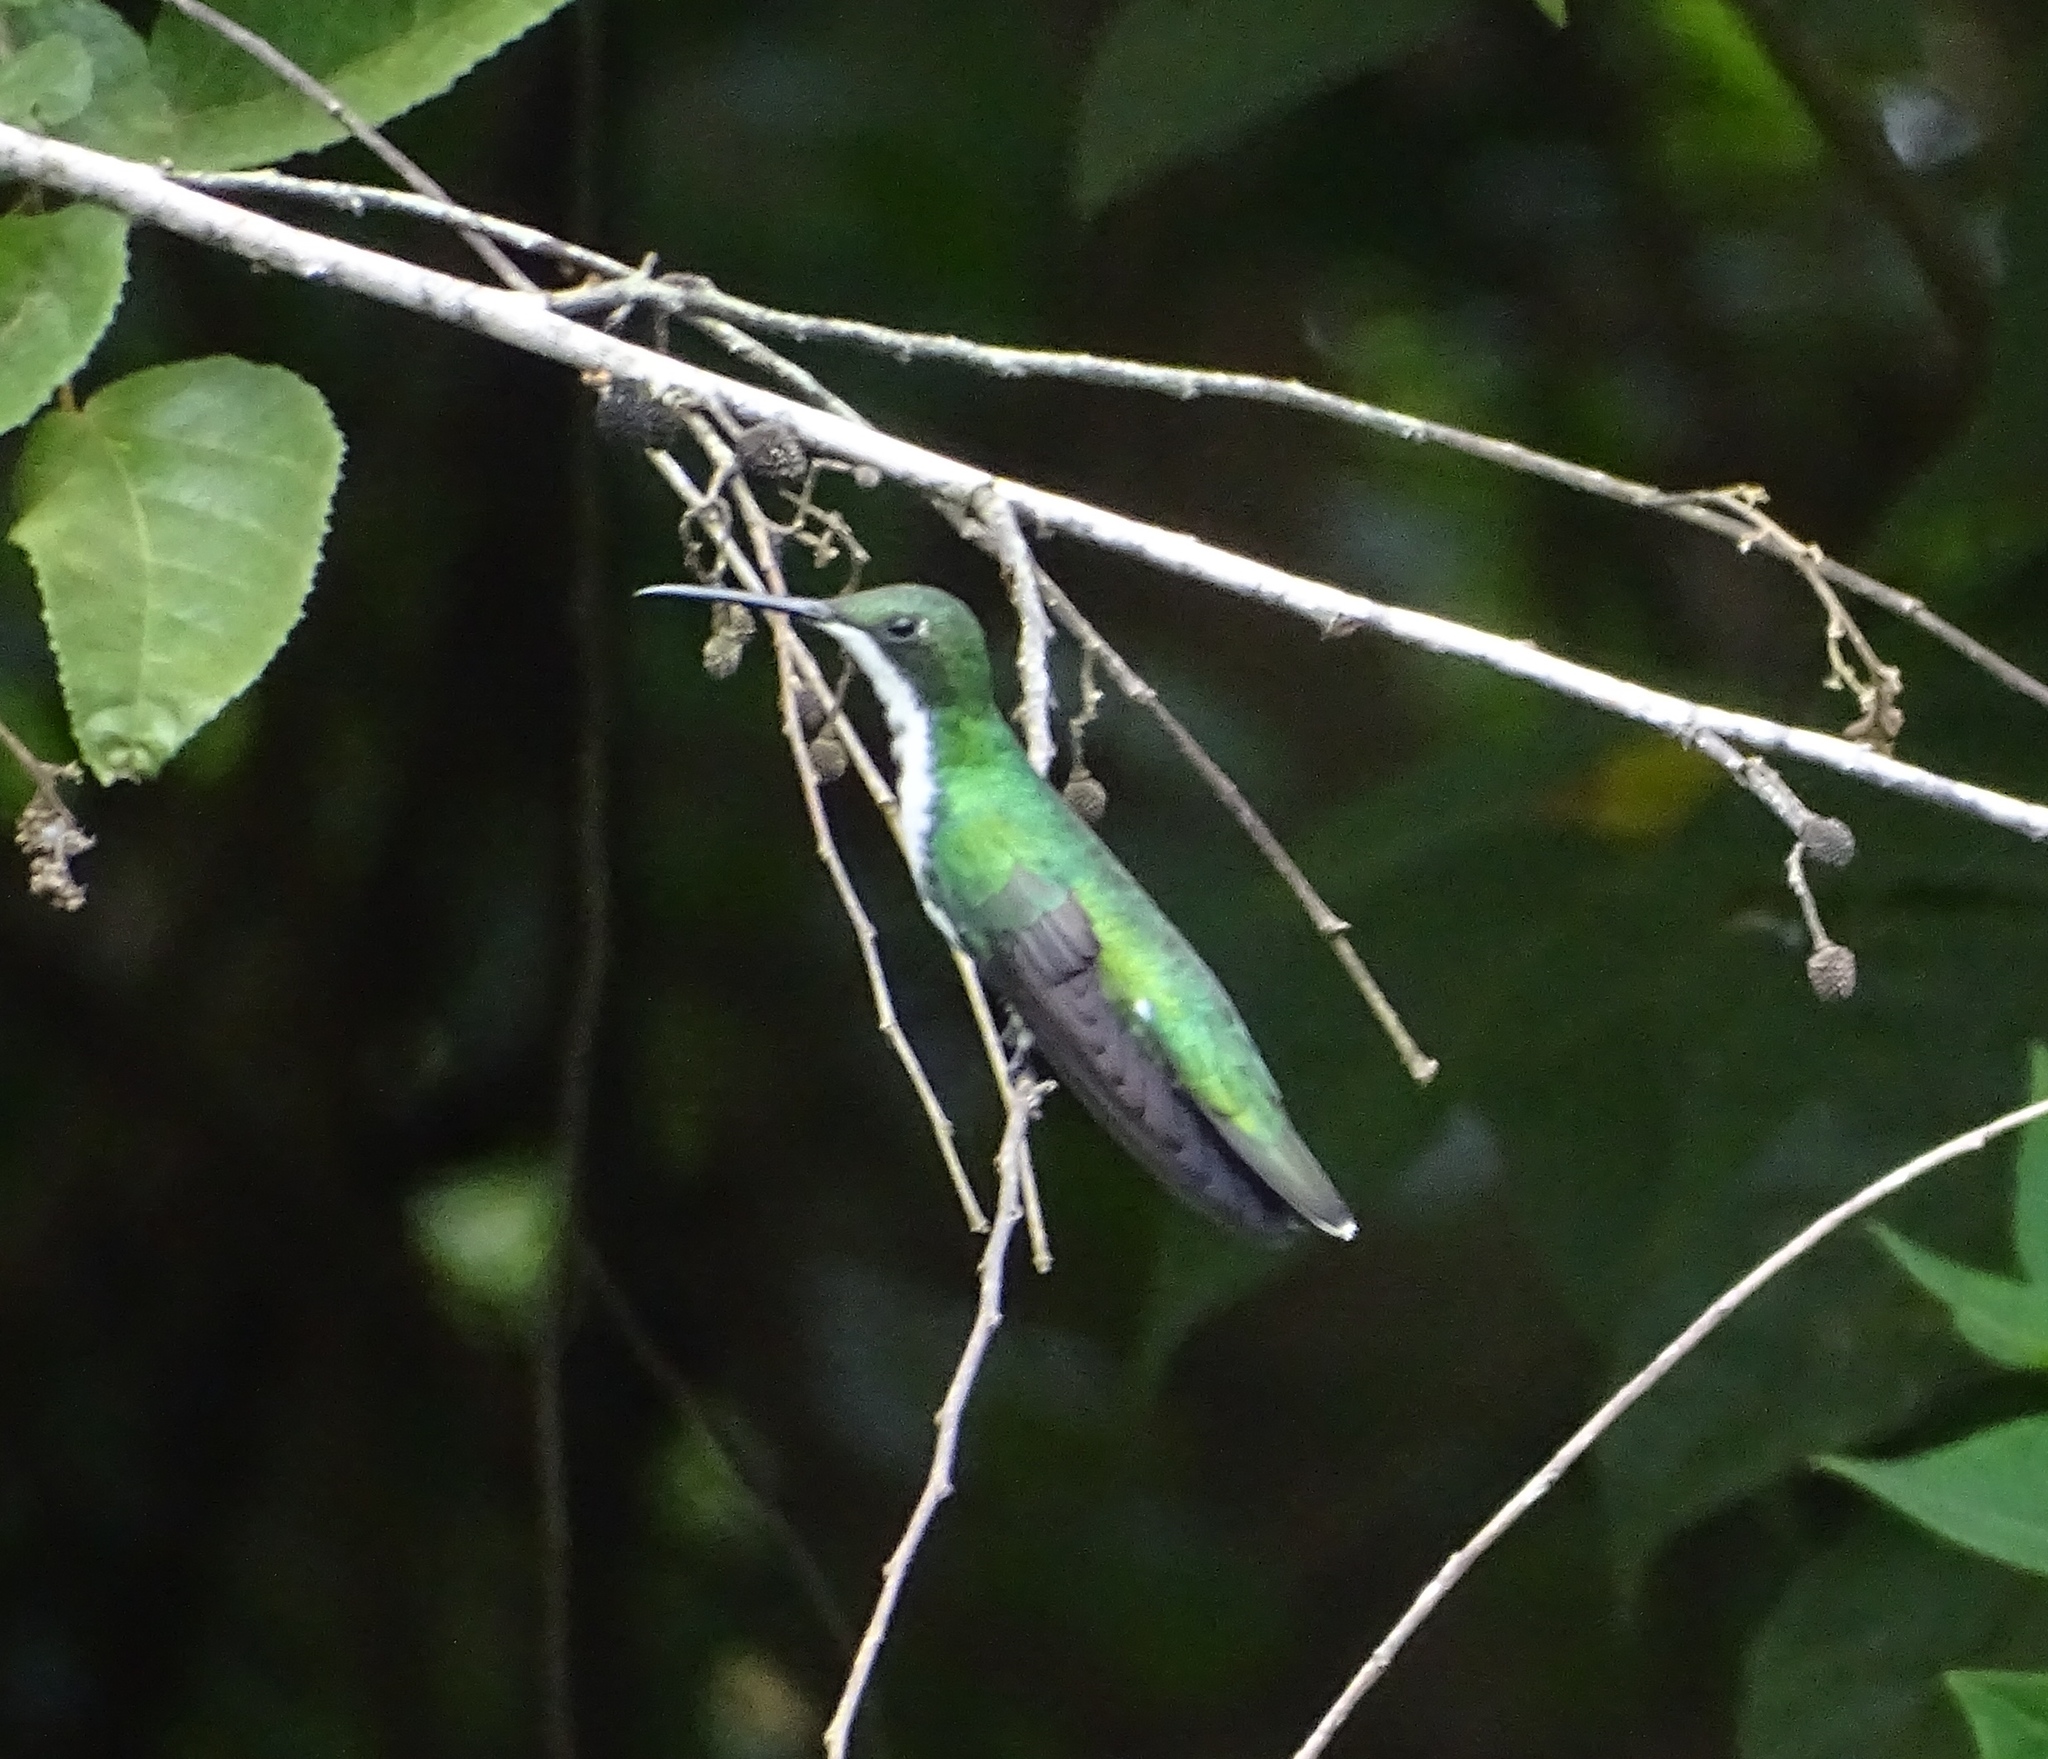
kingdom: Animalia
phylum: Chordata
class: Aves
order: Apodiformes
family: Trochilidae
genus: Anthracothorax
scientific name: Anthracothorax nigricollis
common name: Black-throated mango
